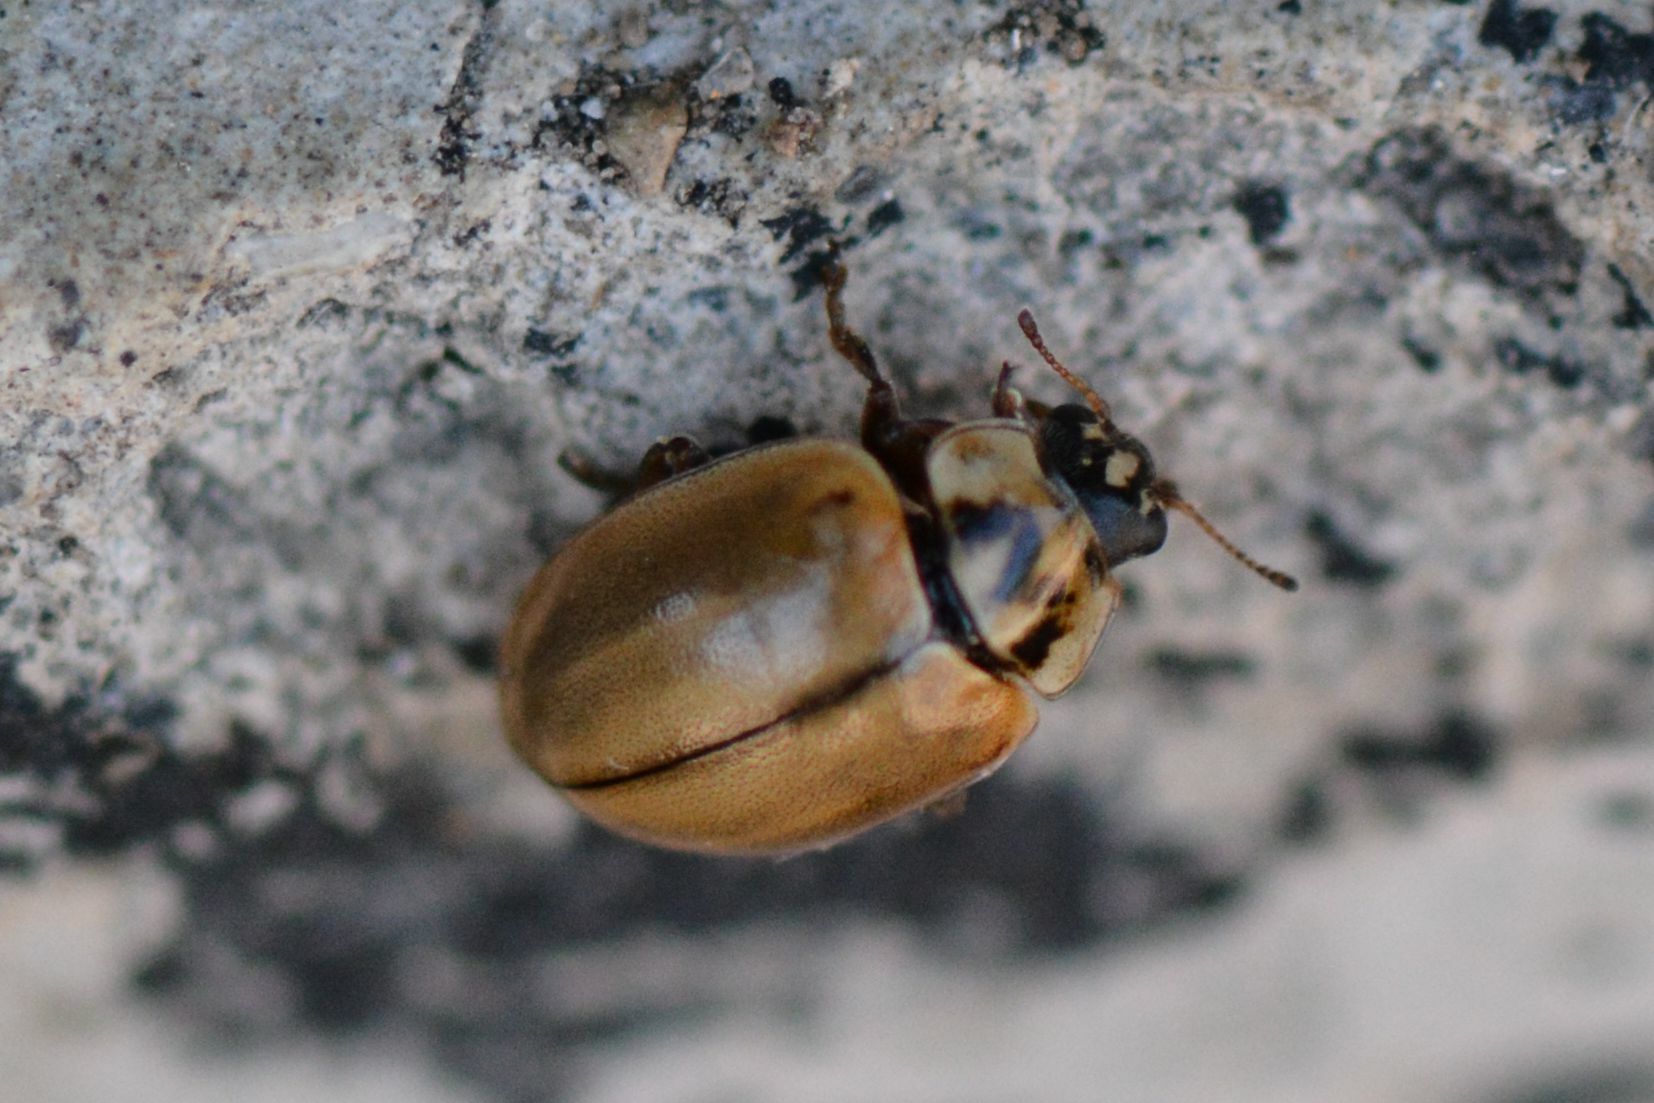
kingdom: Animalia
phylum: Arthropoda
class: Insecta
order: Coleoptera
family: Coccinellidae
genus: Aphidecta
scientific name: Aphidecta obliterata
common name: Larch ladybird
